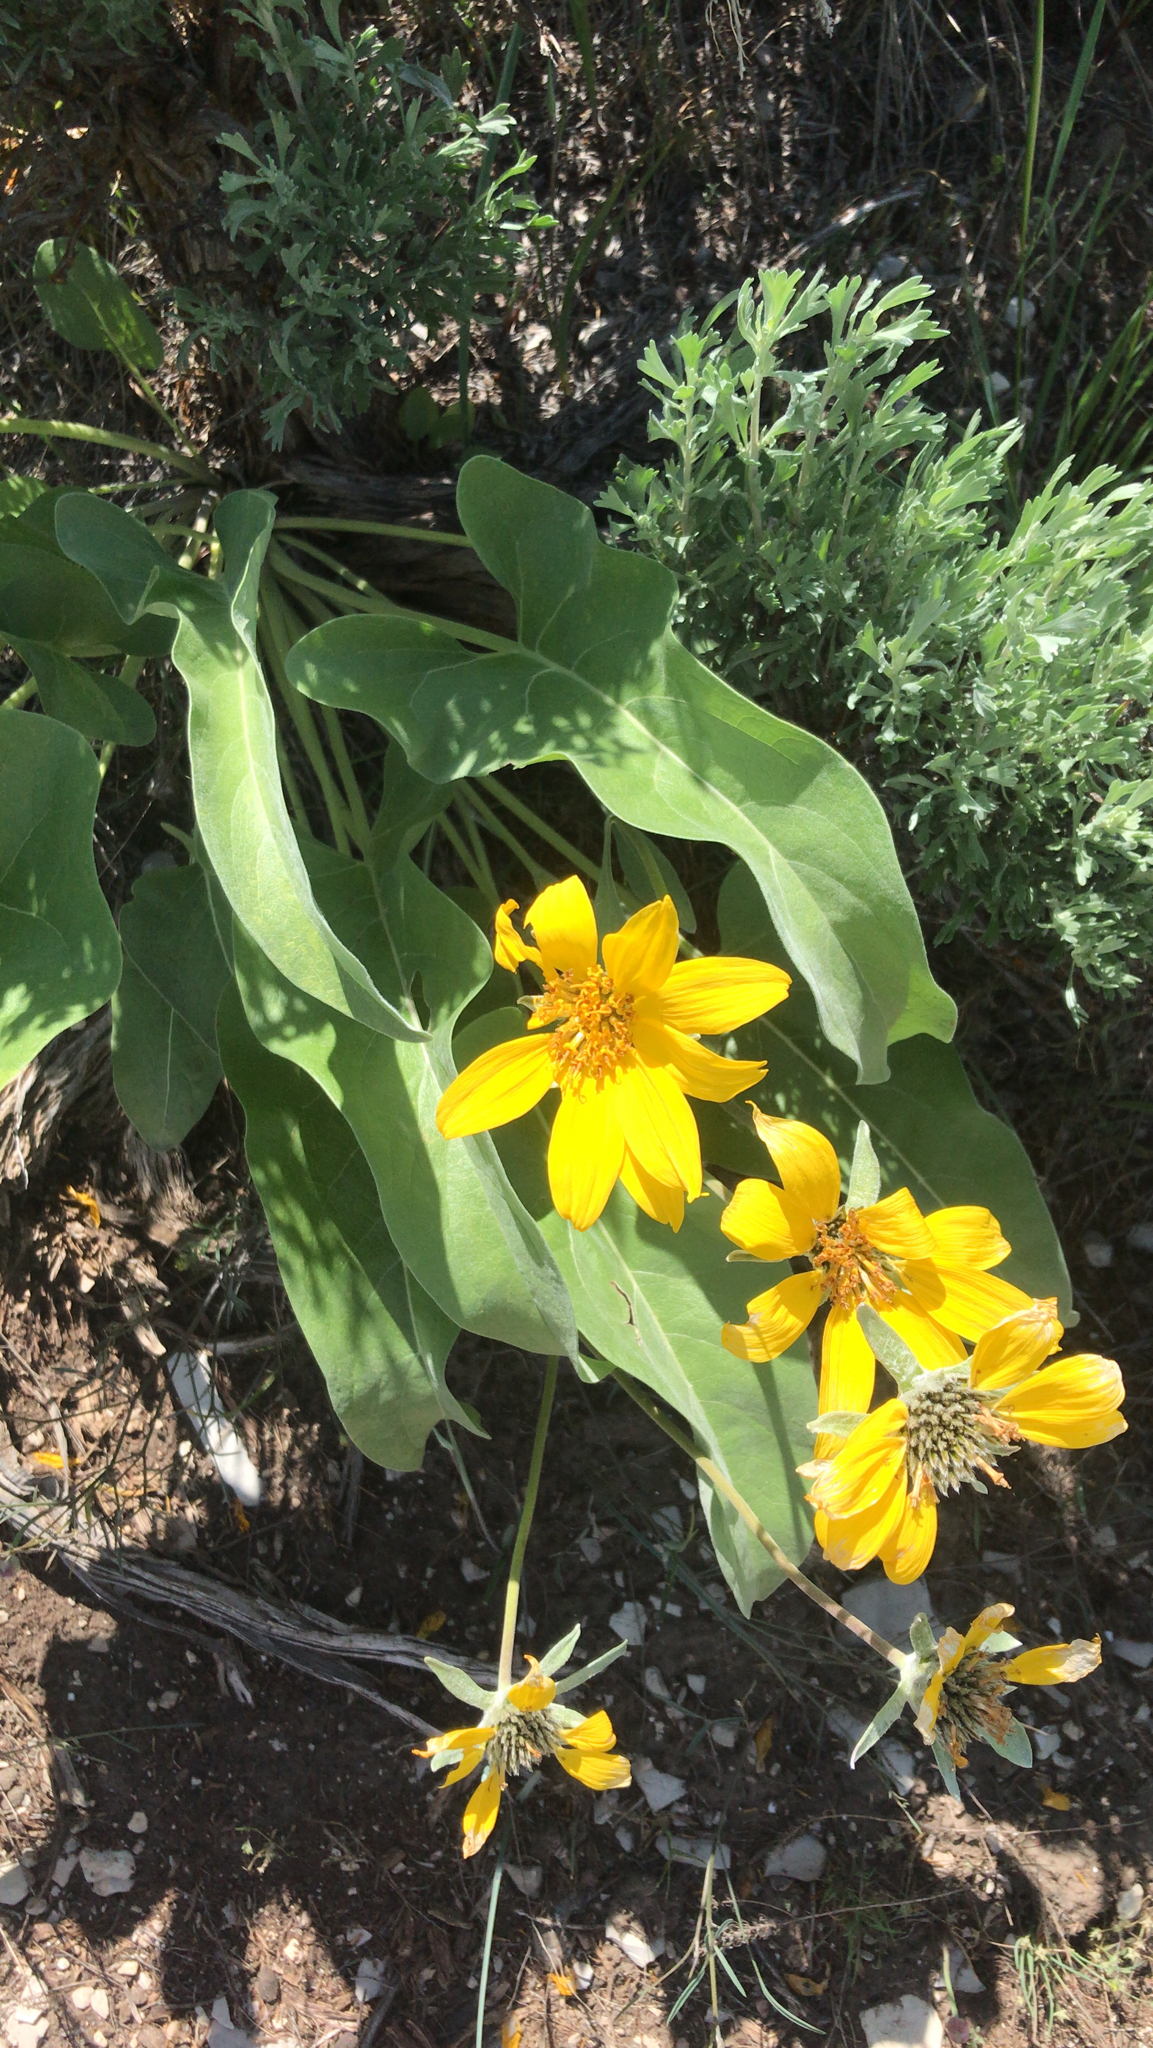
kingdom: Plantae
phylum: Tracheophyta
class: Magnoliopsida
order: Asterales
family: Asteraceae
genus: Wyethia
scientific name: Wyethia sagittata
